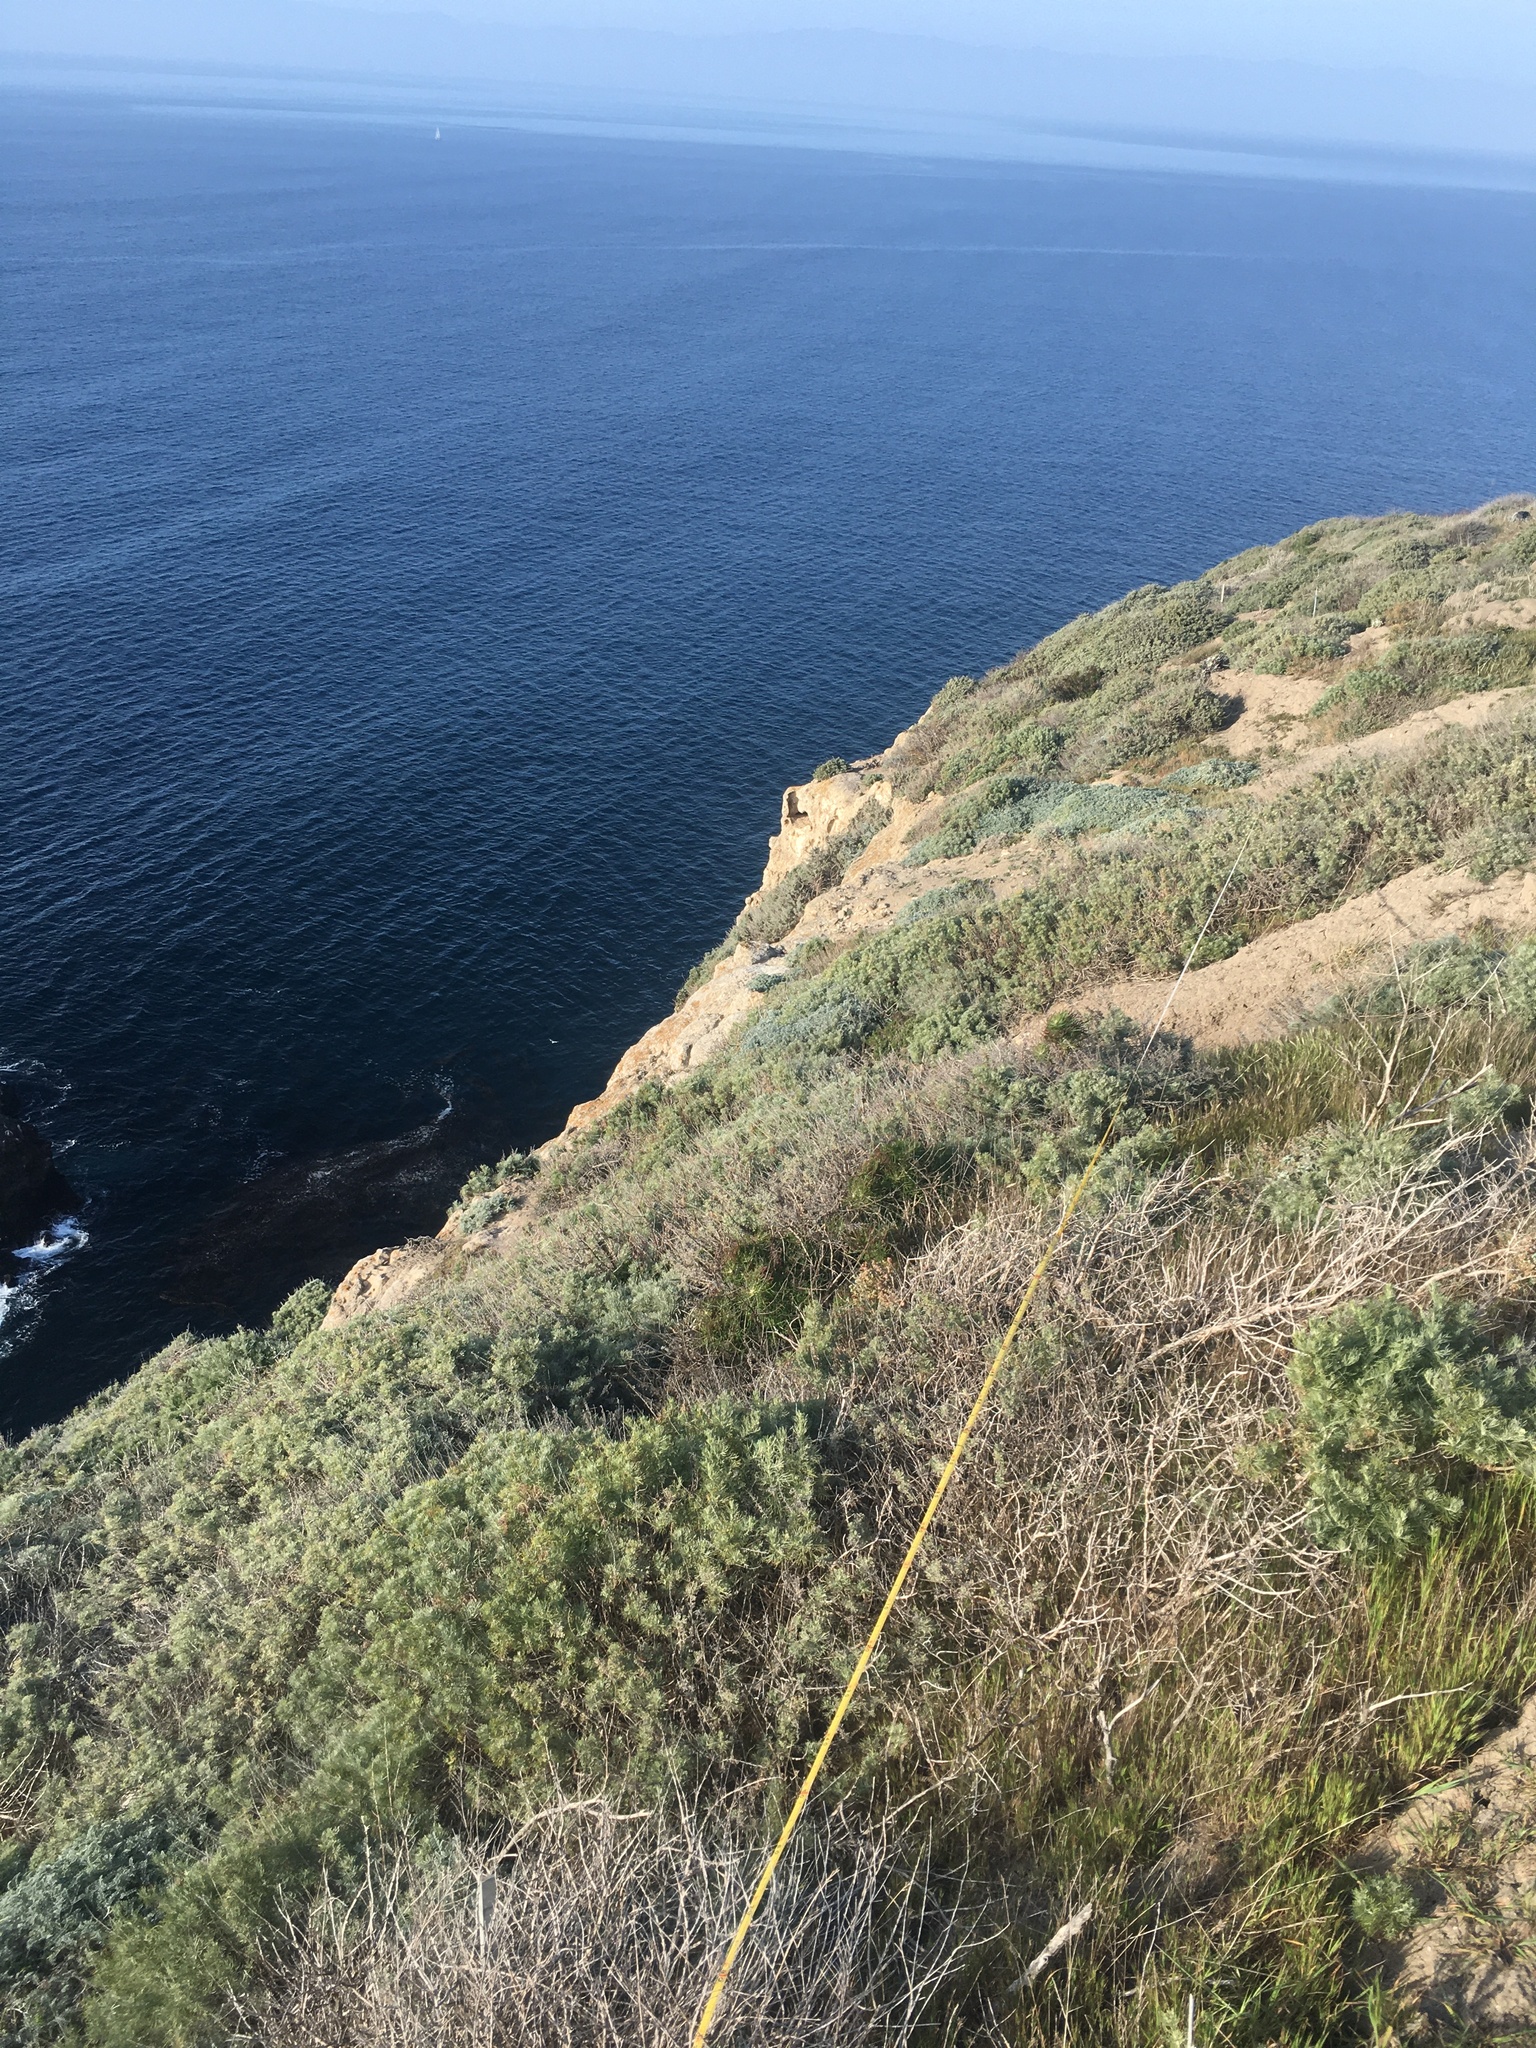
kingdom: Plantae
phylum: Tracheophyta
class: Magnoliopsida
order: Asterales
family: Asteraceae
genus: Artemisia
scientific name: Artemisia californica
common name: California sagebrush
